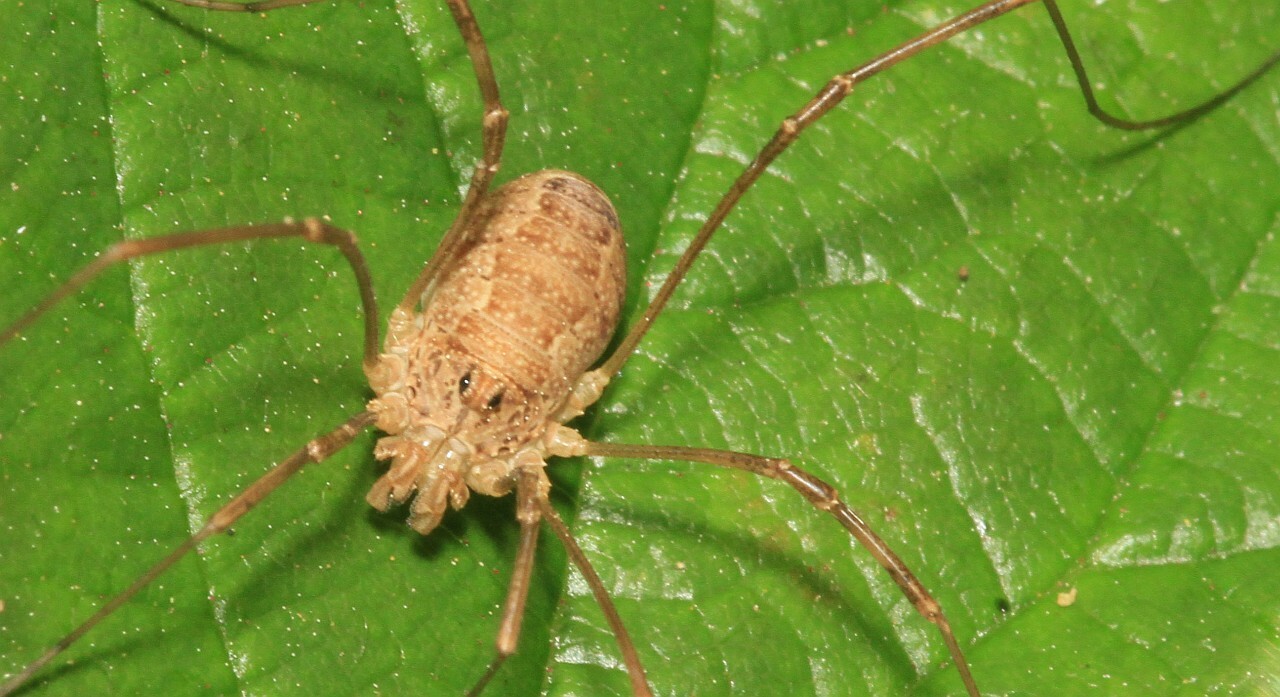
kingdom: Animalia
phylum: Arthropoda
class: Arachnida
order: Opiliones
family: Phalangiidae
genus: Rilaena
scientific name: Rilaena triangularis
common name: Spring harvestman
